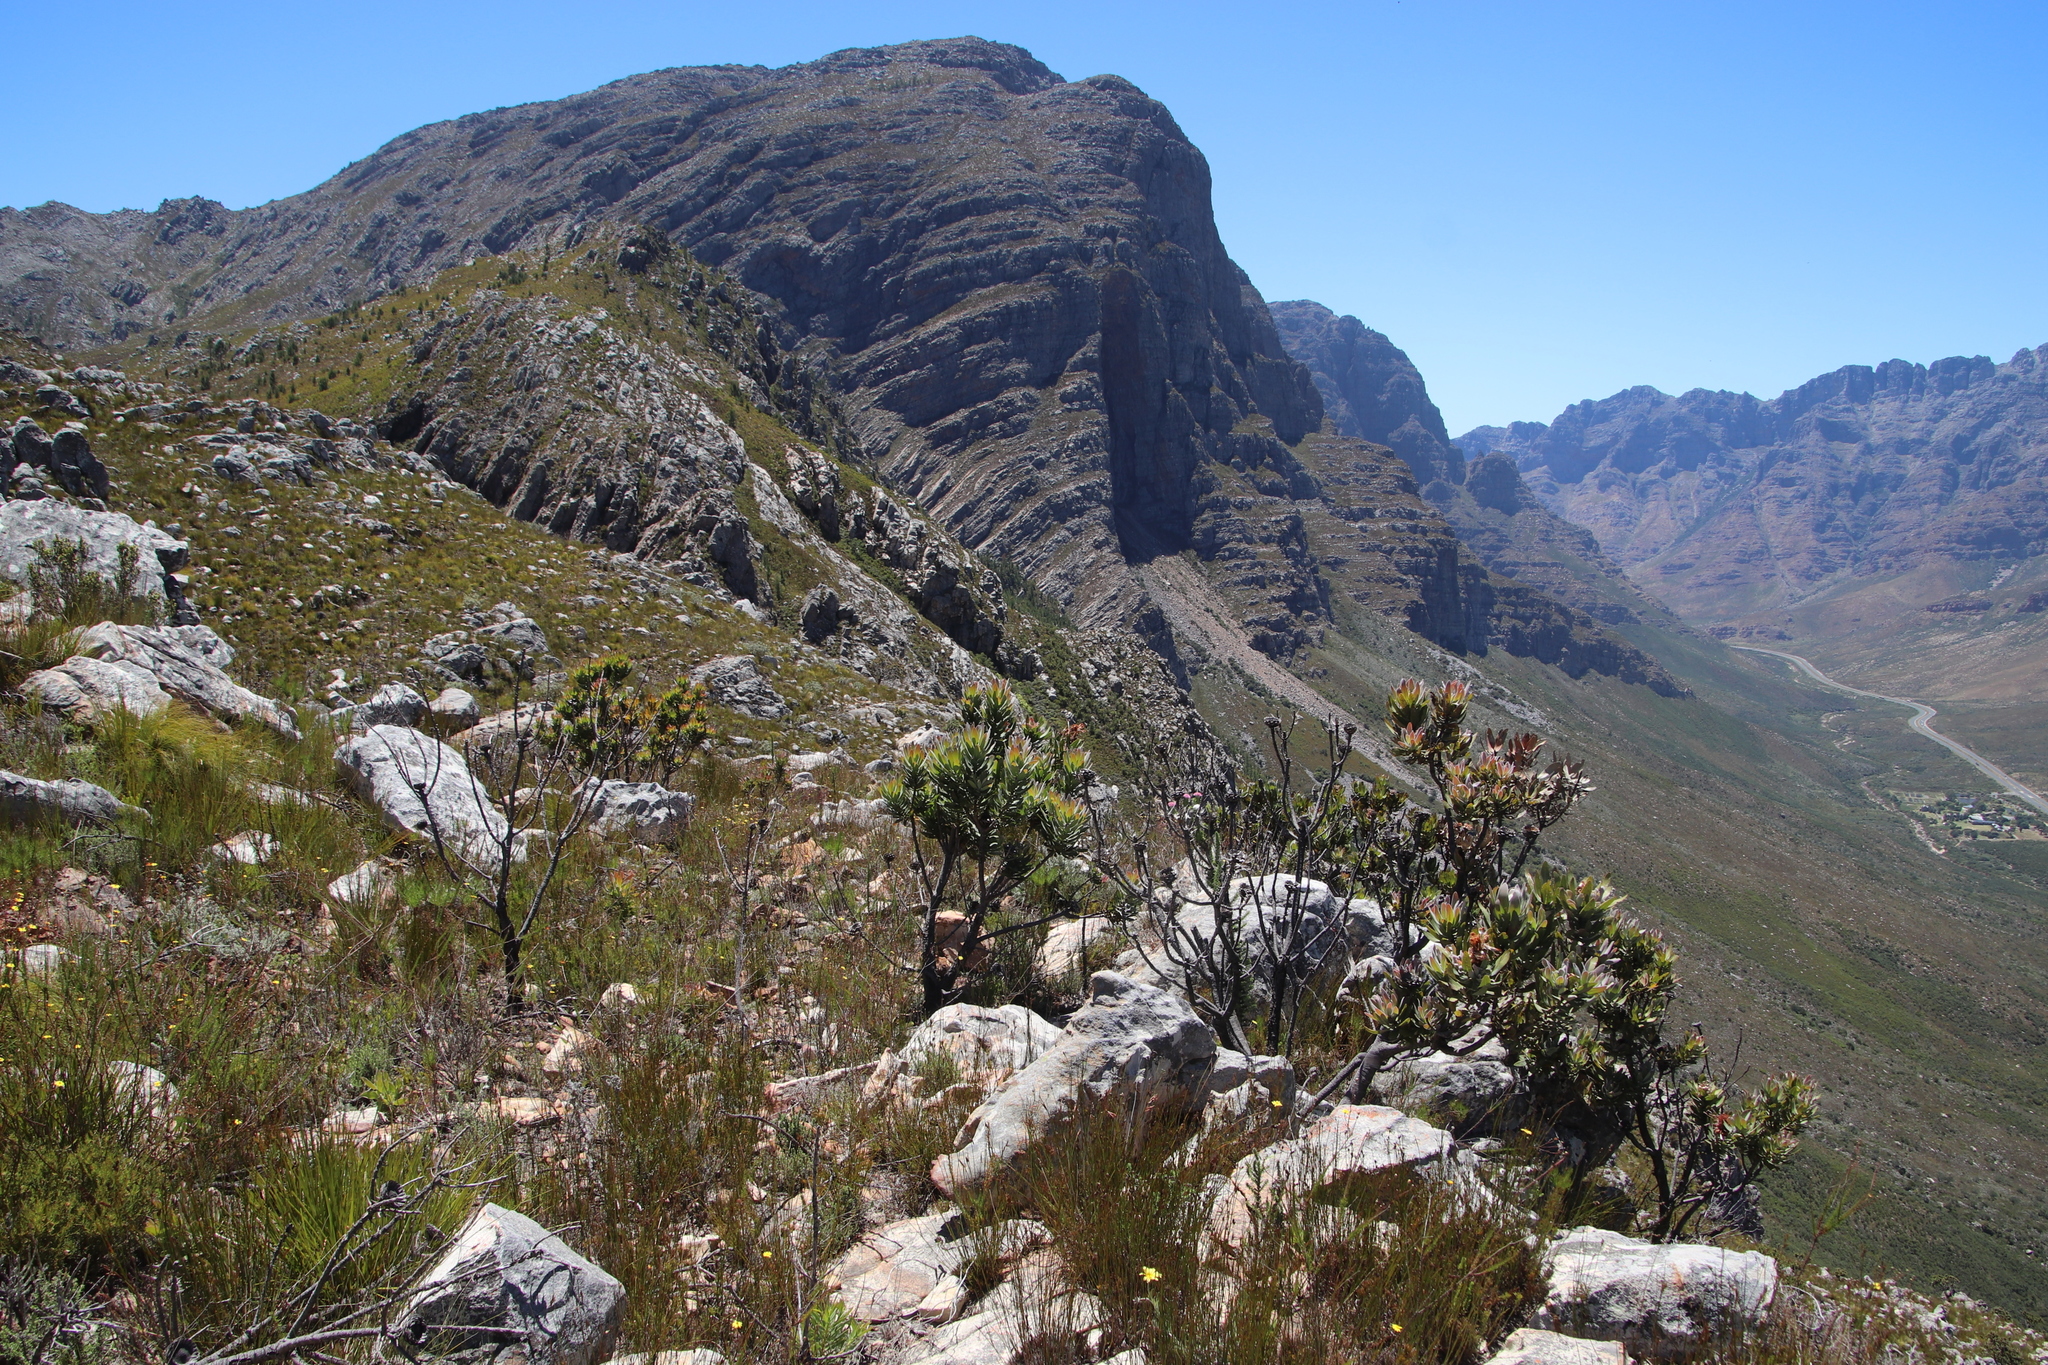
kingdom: Plantae
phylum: Tracheophyta
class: Magnoliopsida
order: Proteales
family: Proteaceae
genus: Protea
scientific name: Protea laurifolia
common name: Grey-leaf sugarbsh
